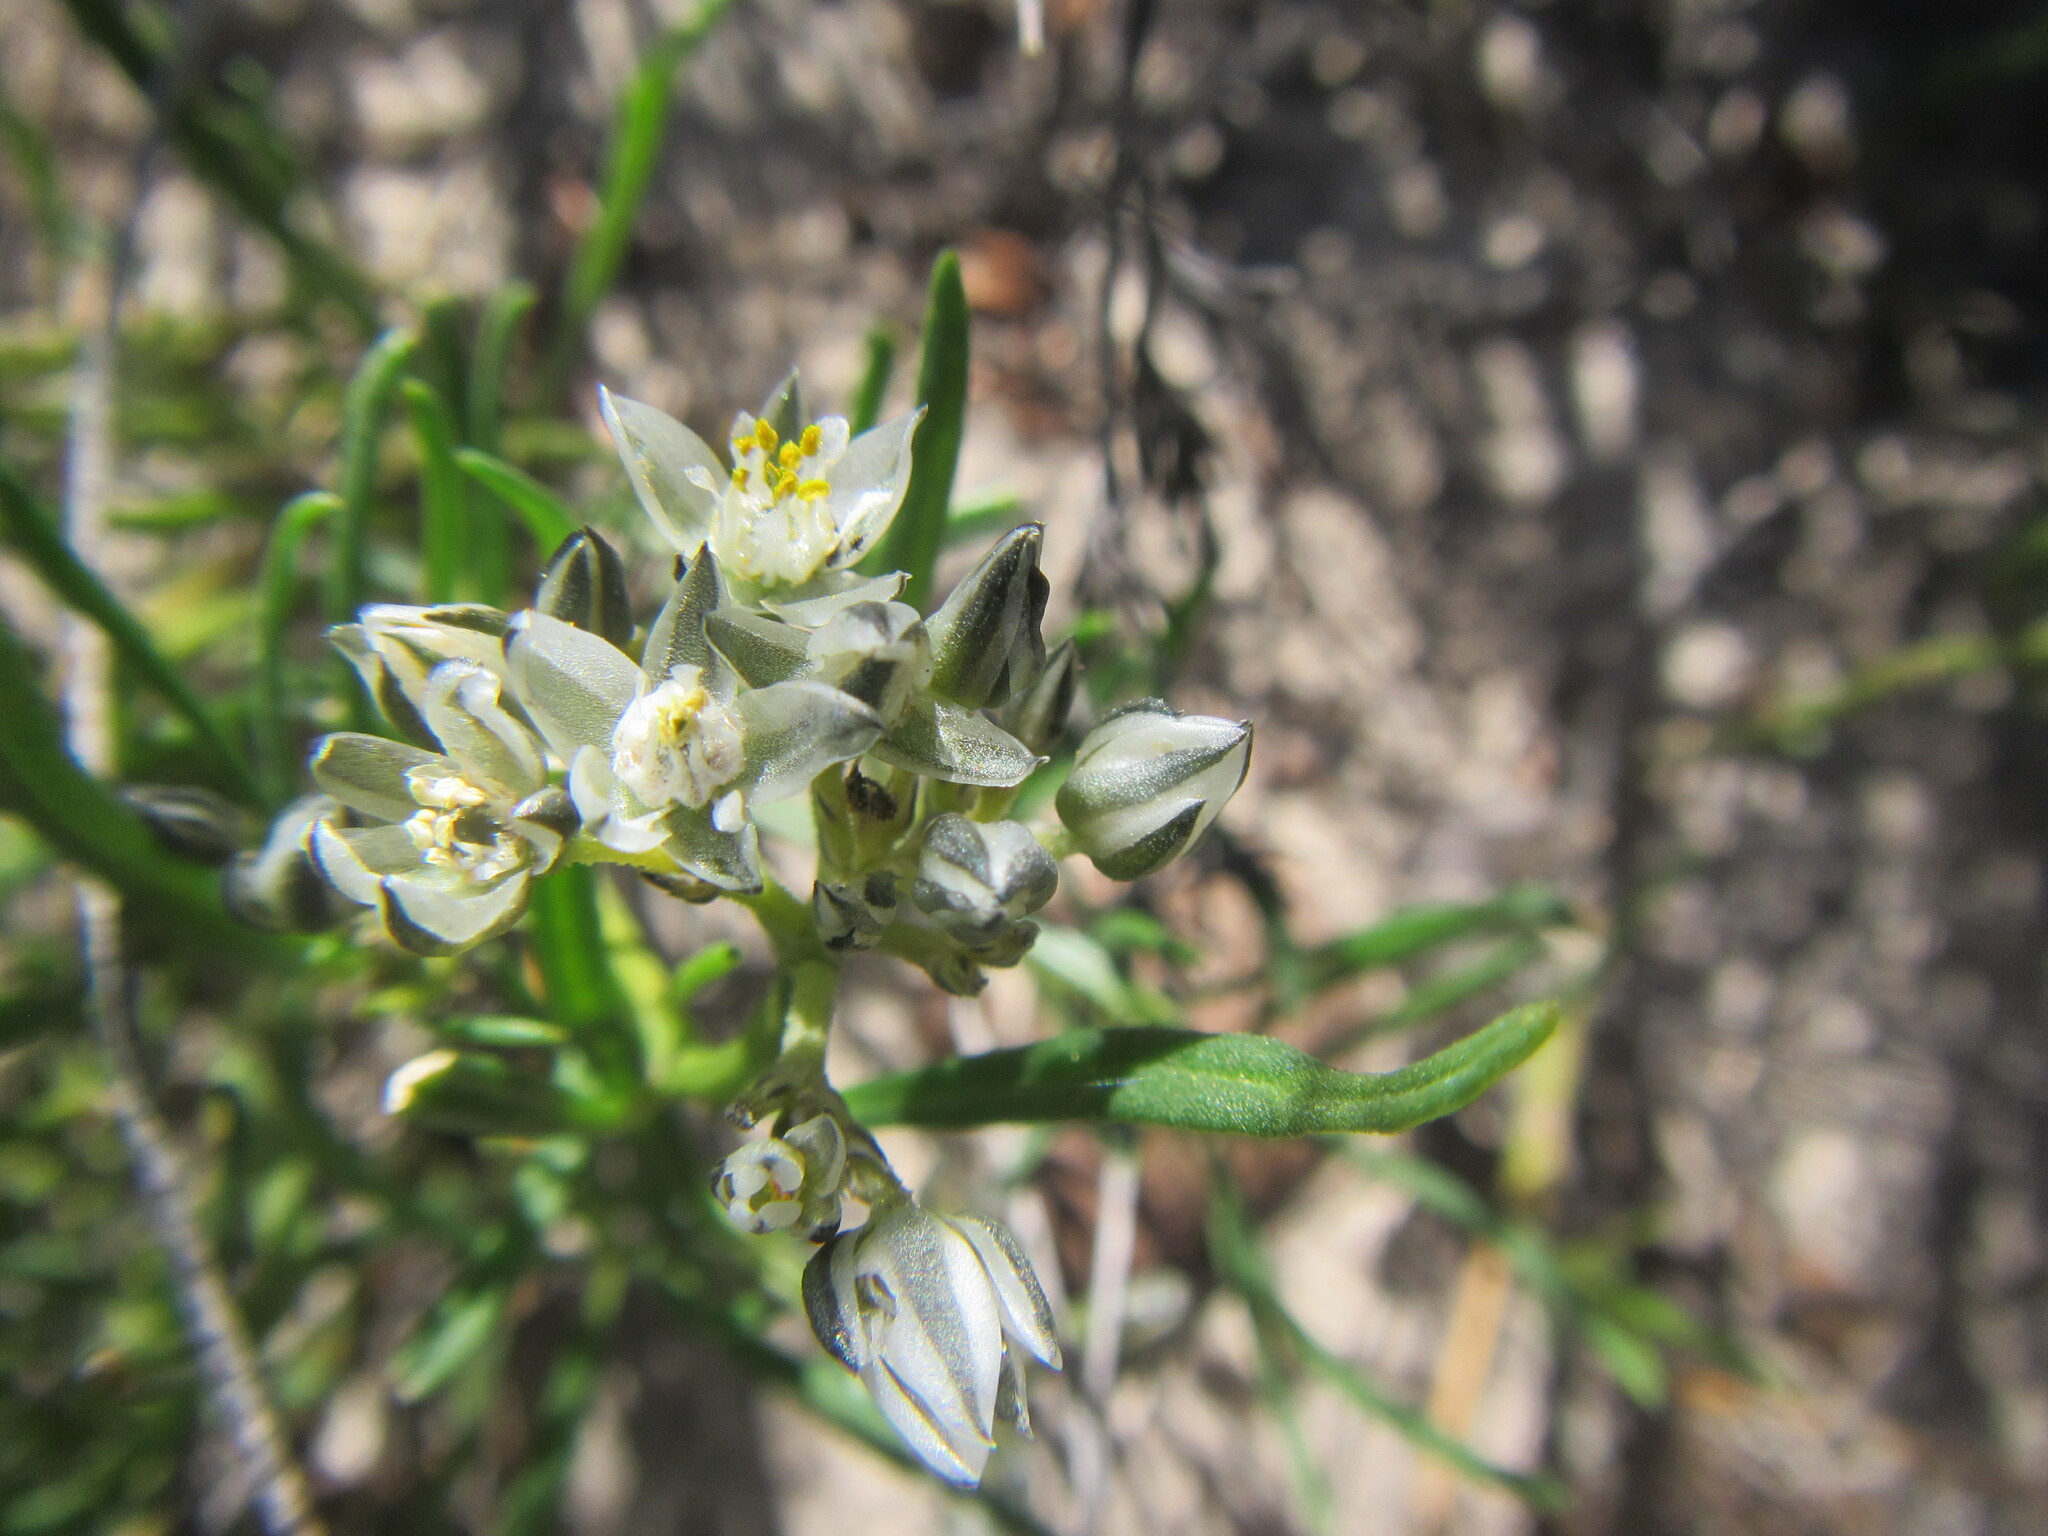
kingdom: Plantae
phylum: Tracheophyta
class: Magnoliopsida
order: Caryophyllales
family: Limeaceae
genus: Limeum
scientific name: Limeum africanum
